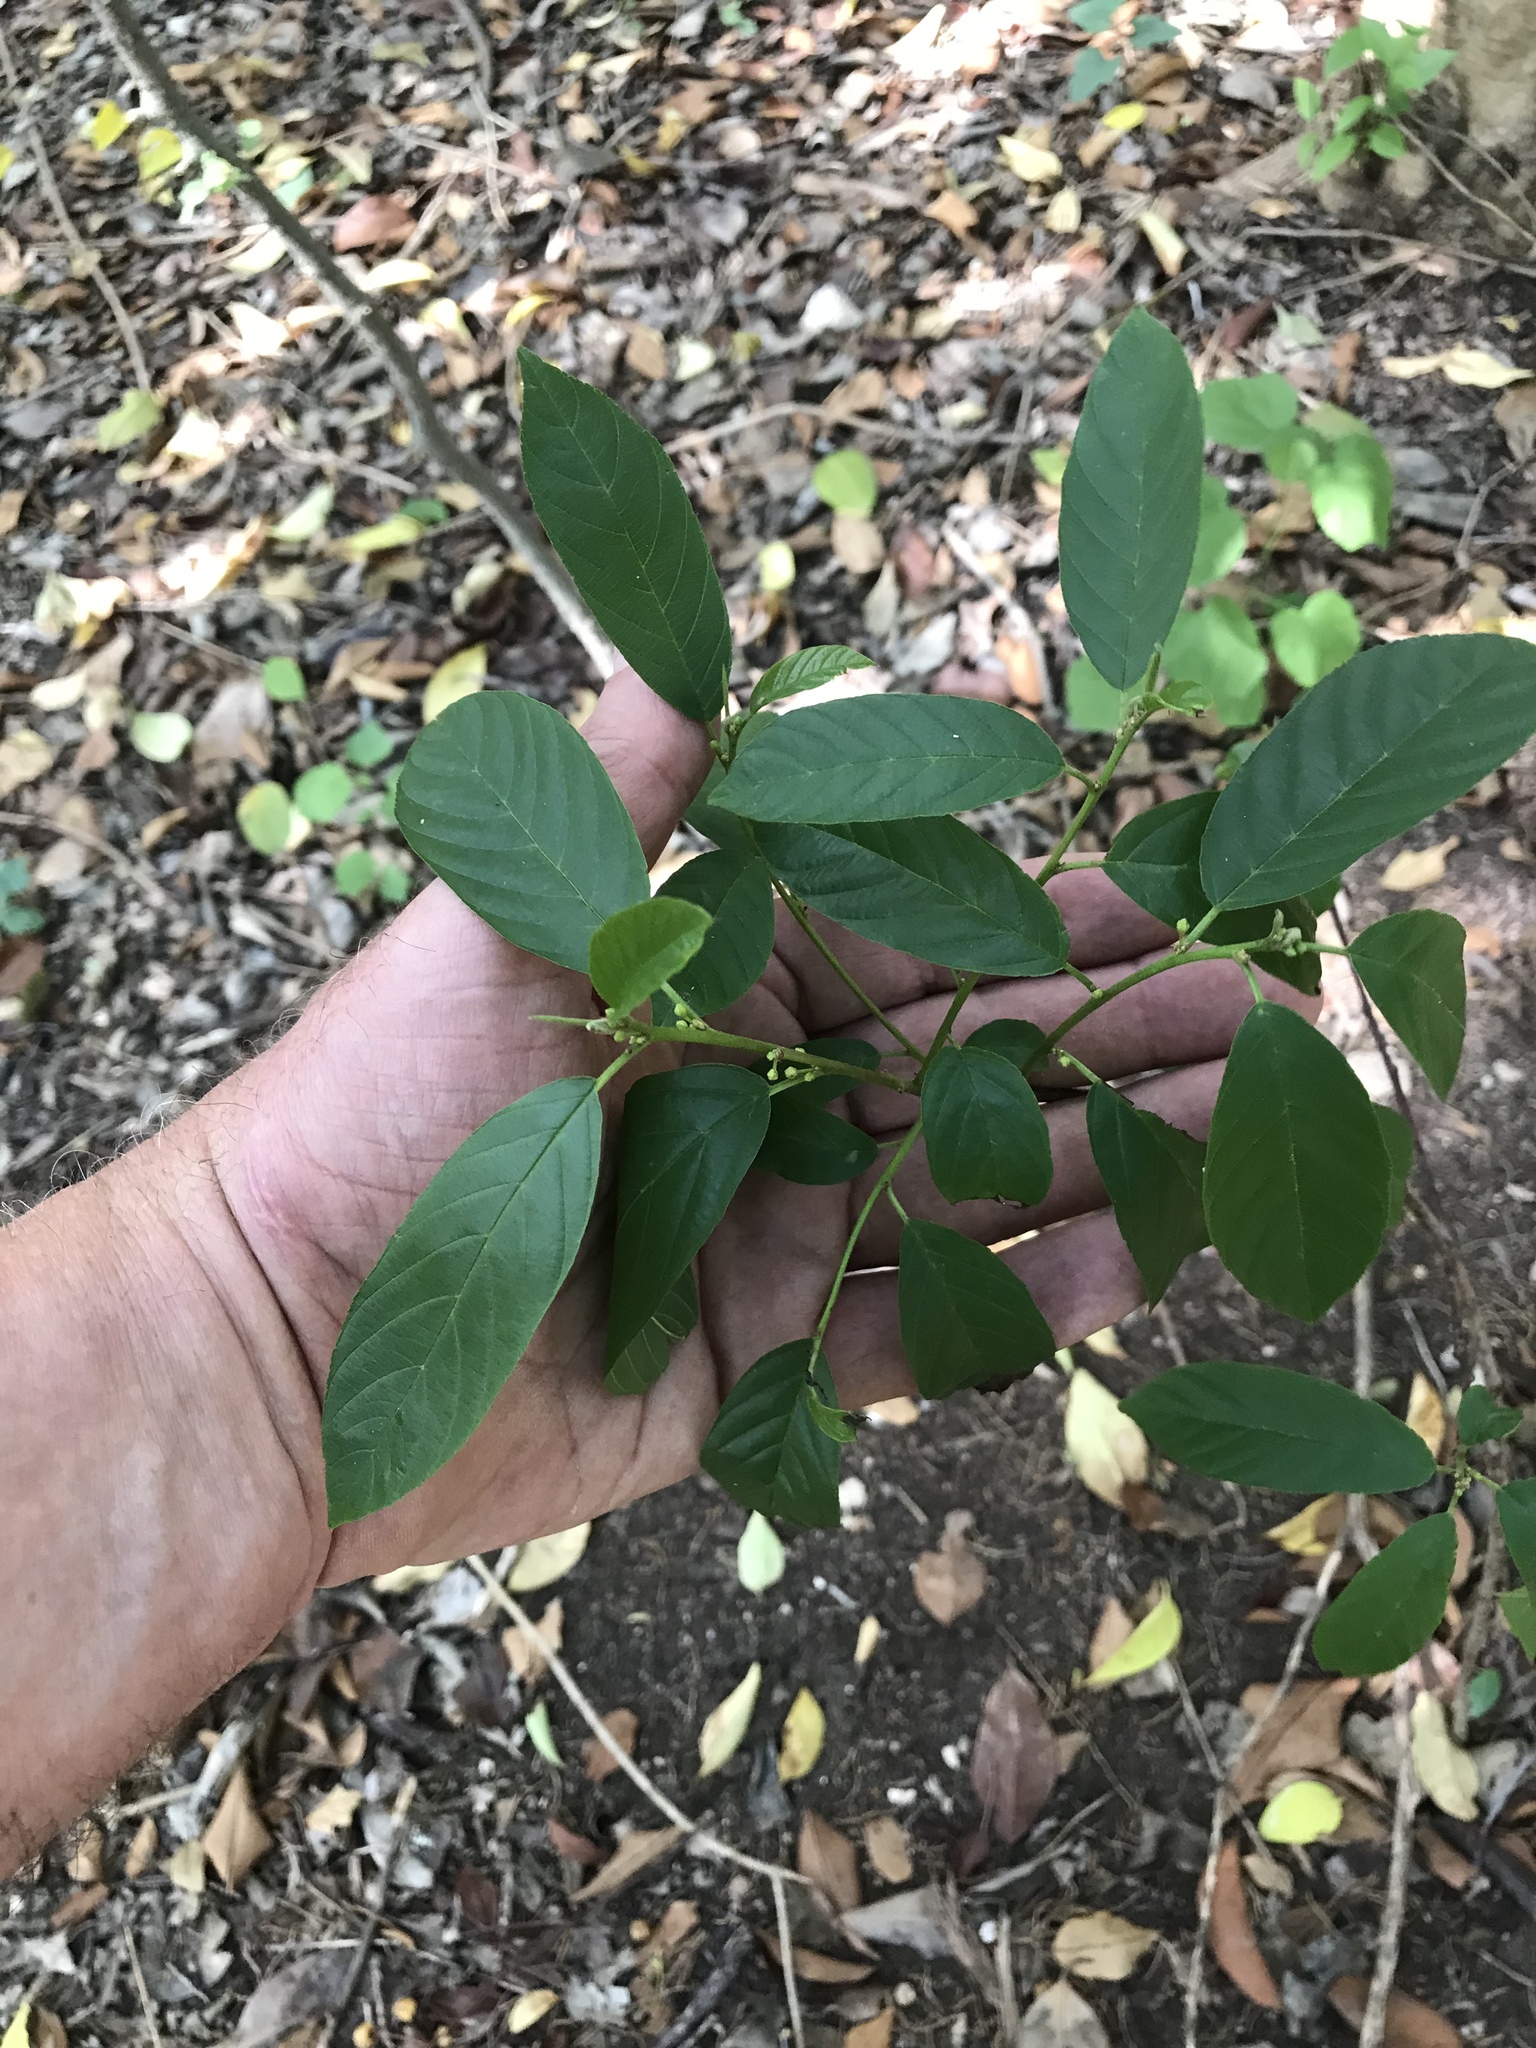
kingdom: Plantae
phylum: Tracheophyta
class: Magnoliopsida
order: Rosales
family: Rhamnaceae
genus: Frangula
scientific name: Frangula caroliniana
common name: Carolina buckthorn
